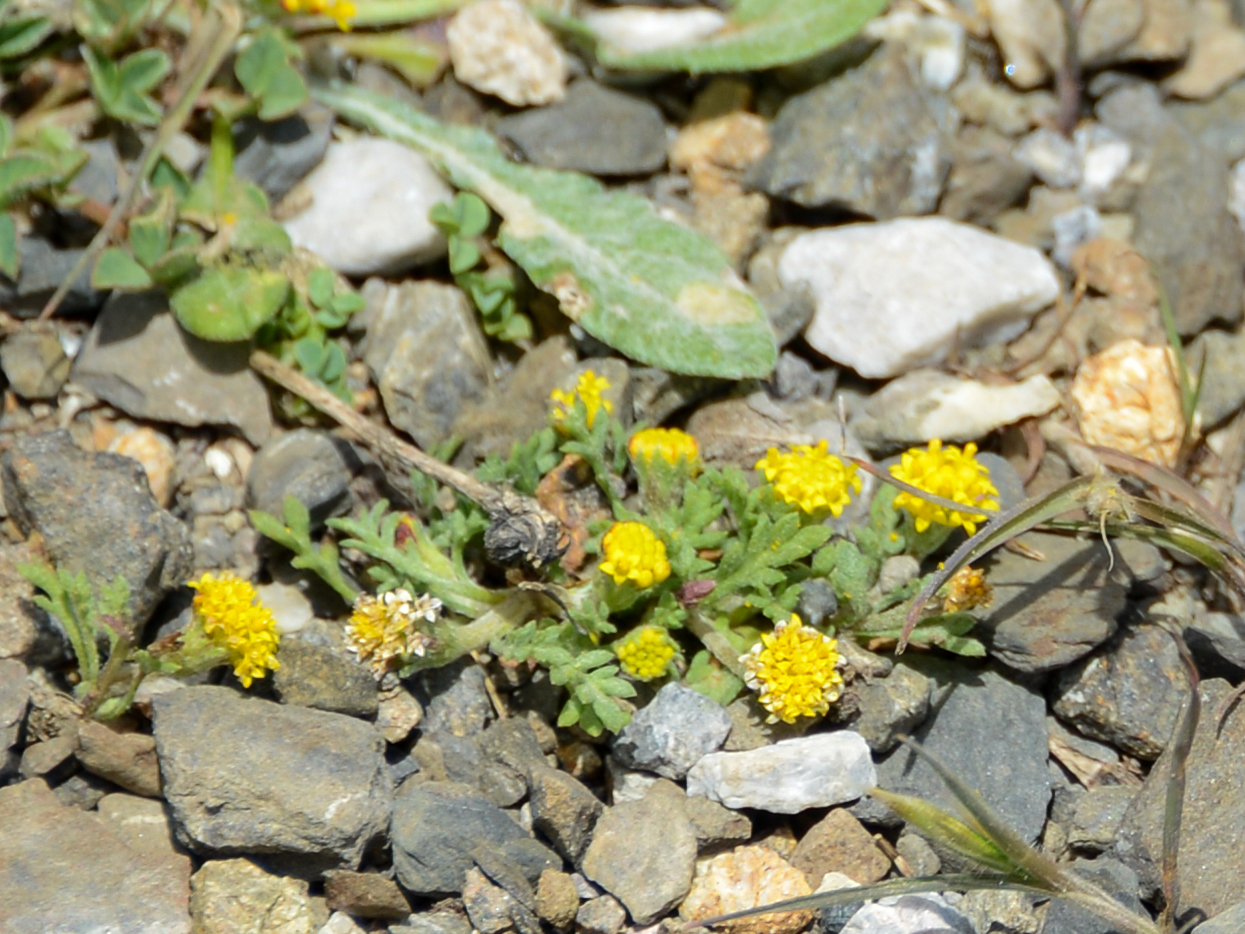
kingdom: Plantae
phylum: Tracheophyta
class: Magnoliopsida
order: Asterales
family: Asteraceae
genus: Anthemis
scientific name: Anthemis rigida
